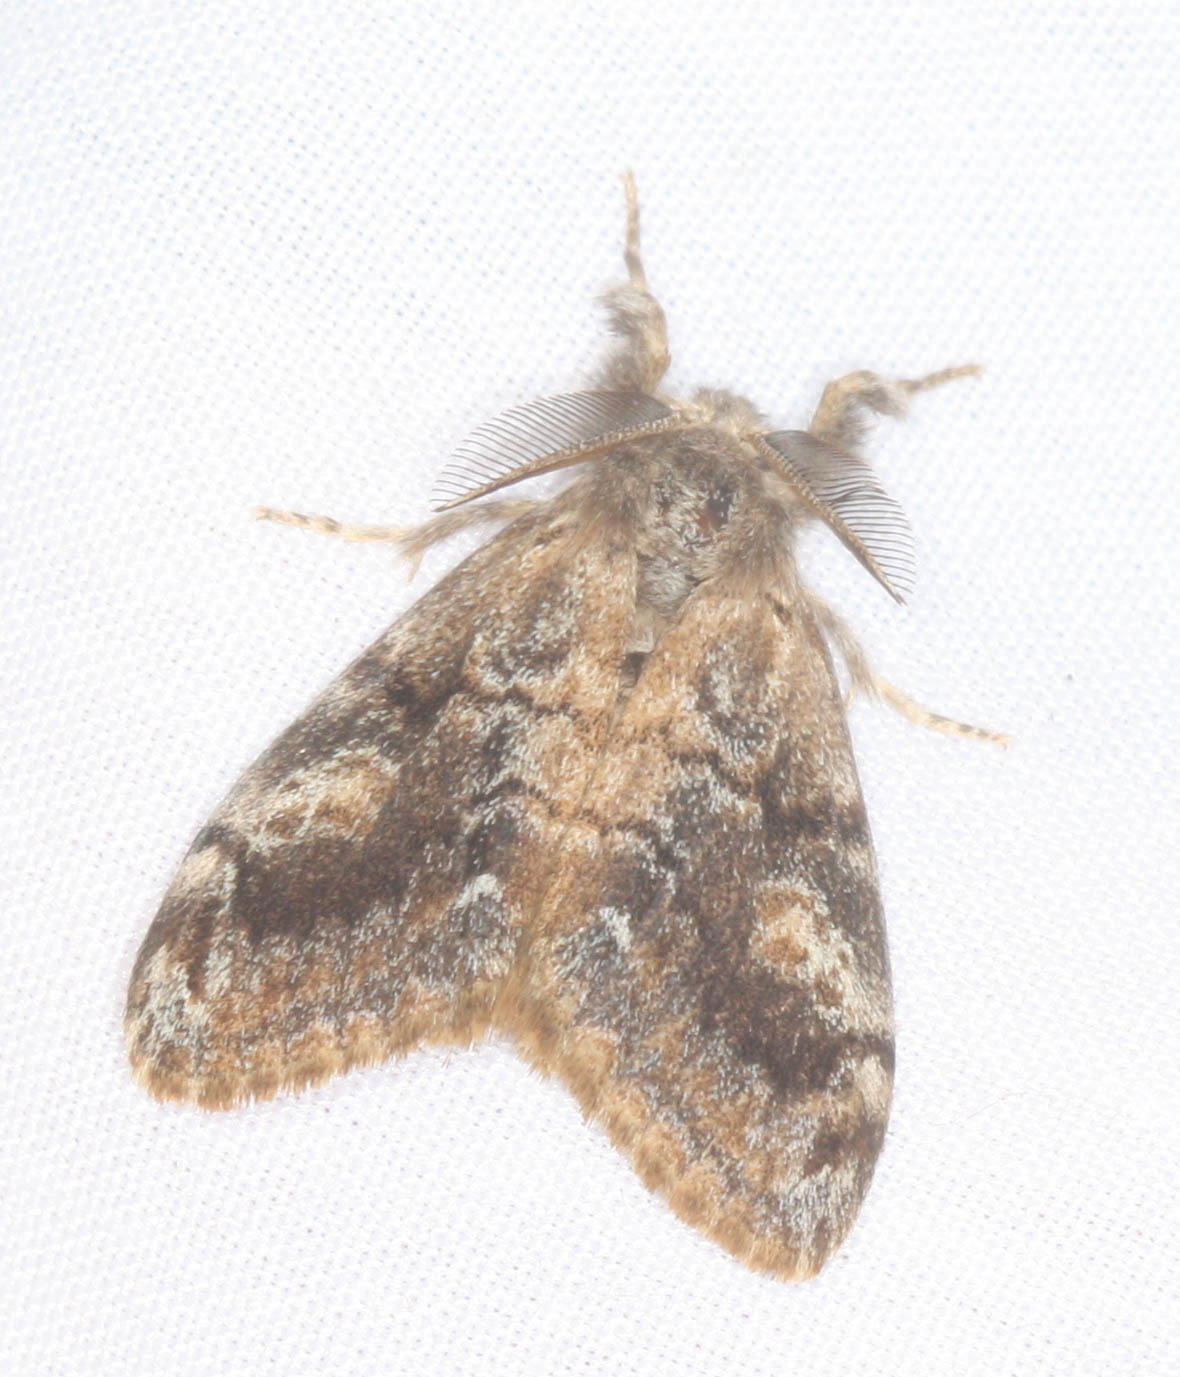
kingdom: Animalia
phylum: Arthropoda
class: Insecta
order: Lepidoptera
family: Erebidae
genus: Orgyia
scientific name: Orgyia vetusta
